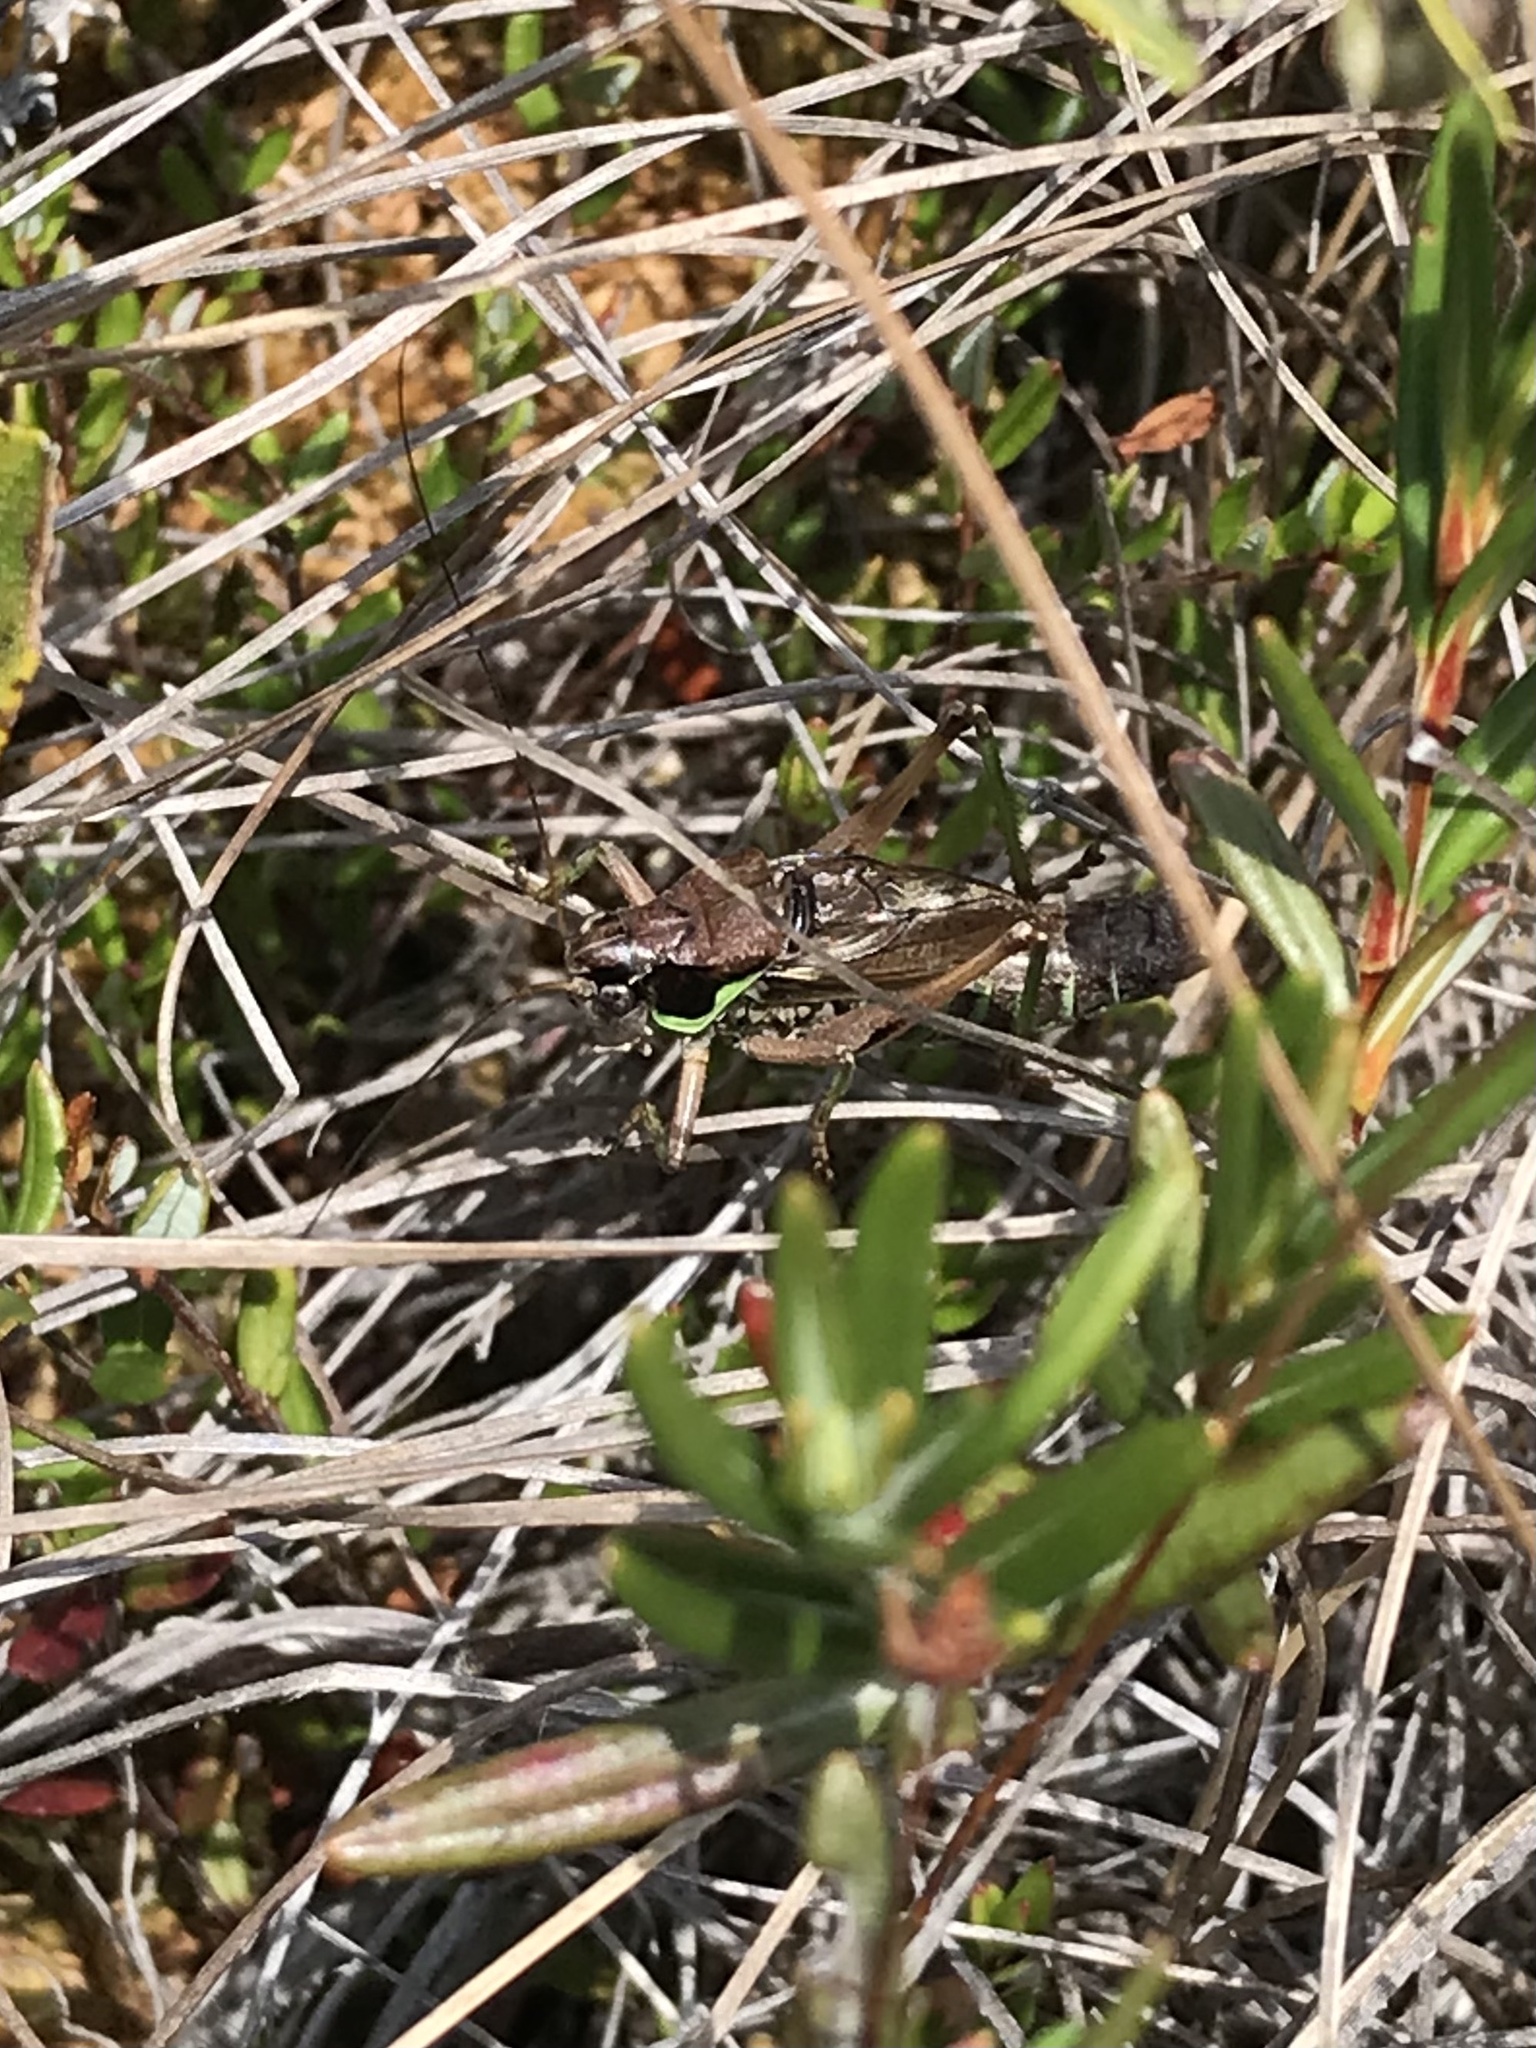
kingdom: Animalia
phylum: Arthropoda
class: Insecta
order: Orthoptera
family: Tettigoniidae
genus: Sphagniana
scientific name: Sphagniana sphagnorum
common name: Bog katydid
